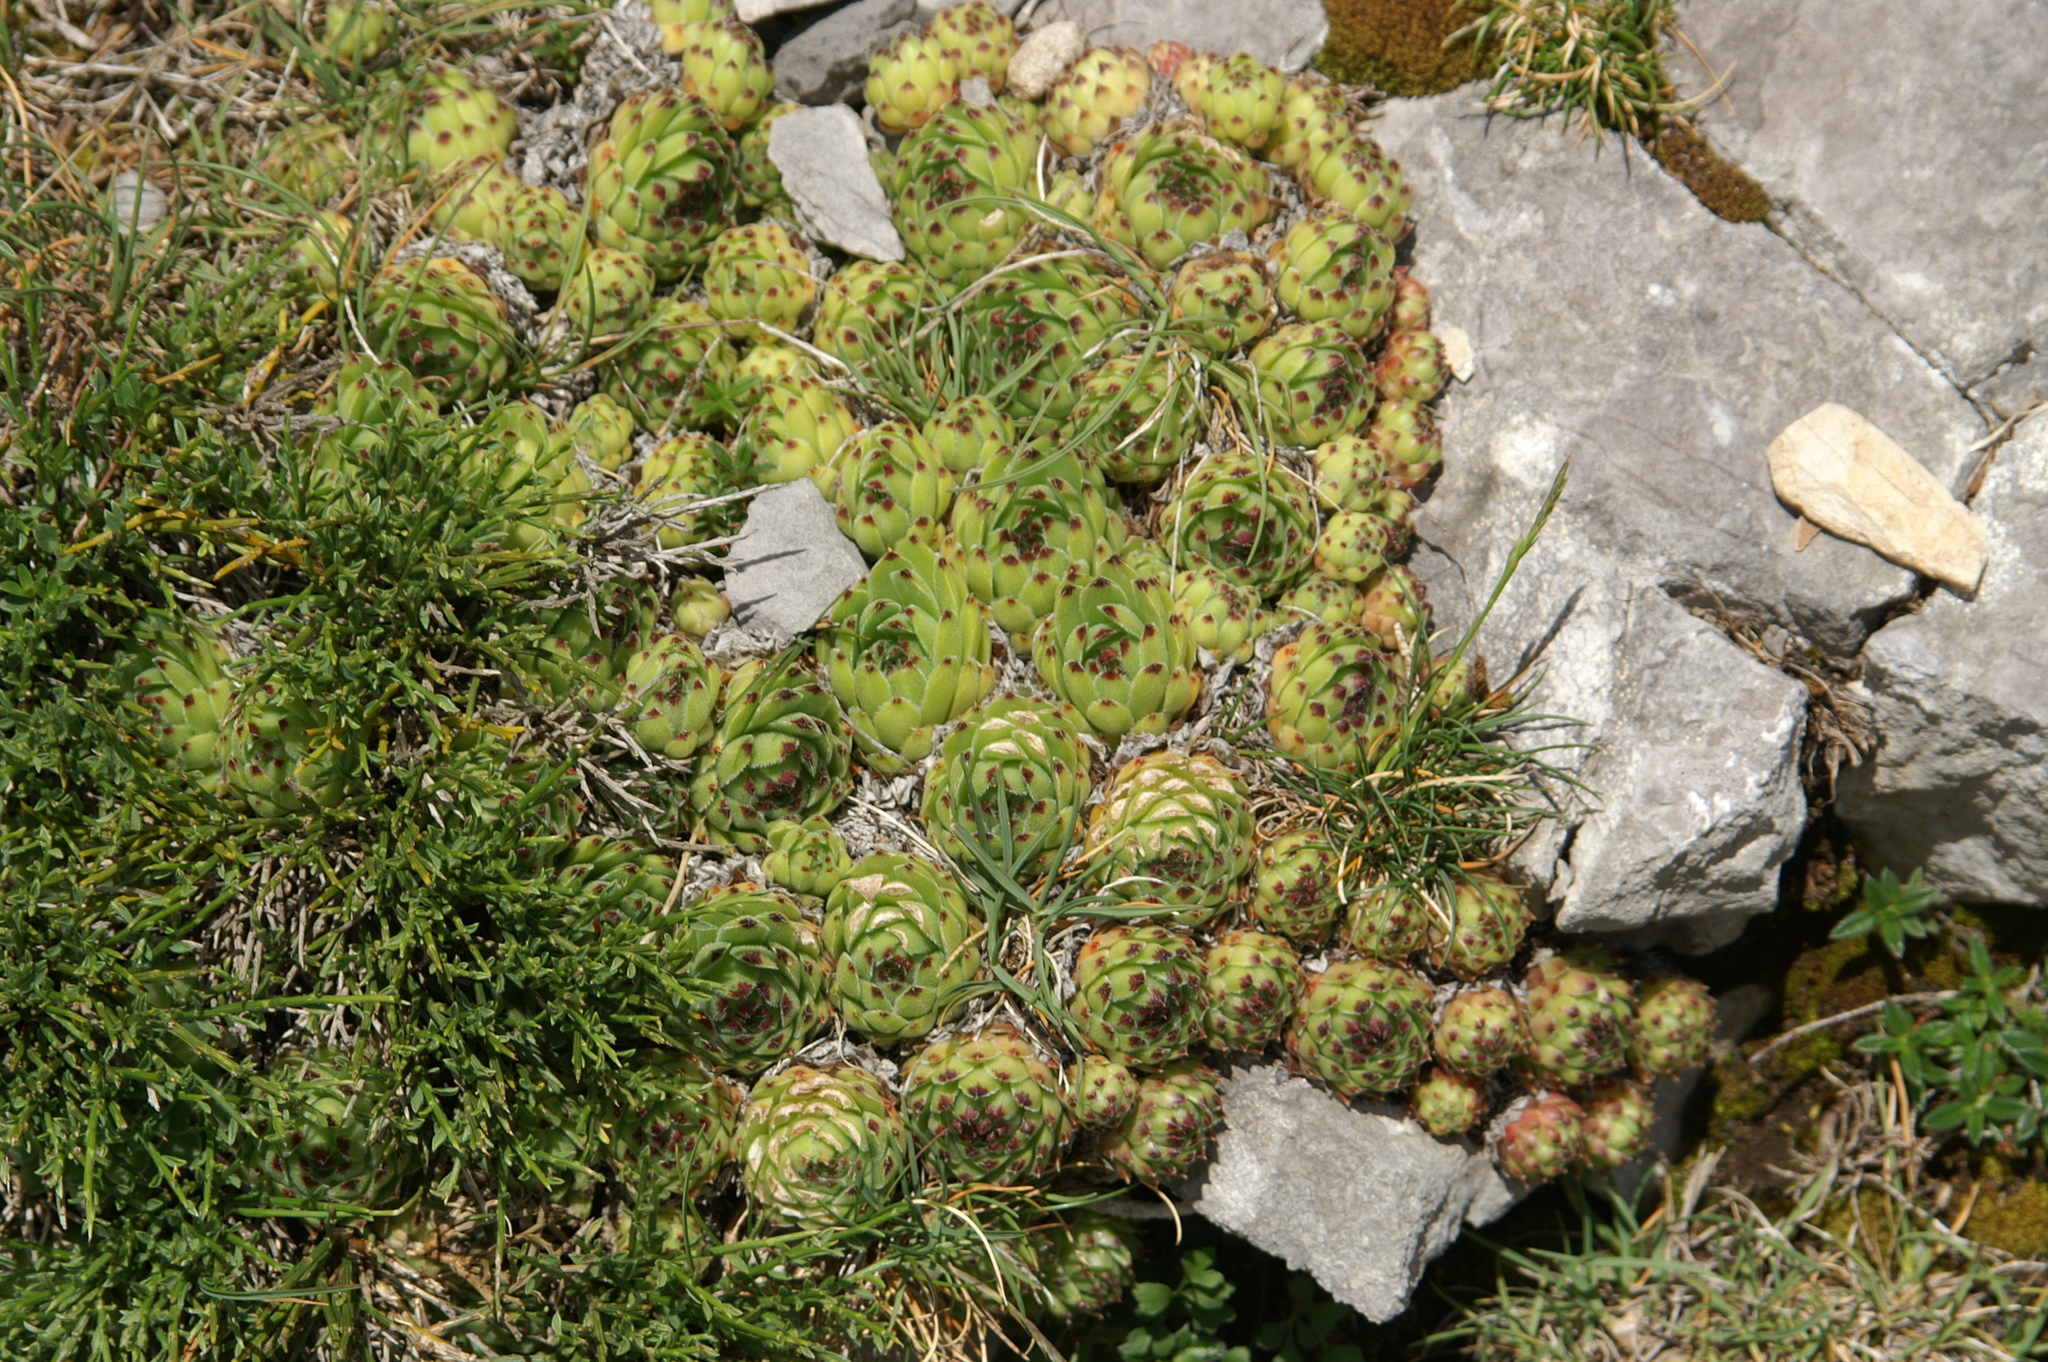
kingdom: Plantae
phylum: Tracheophyta
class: Magnoliopsida
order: Saxifragales
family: Crassulaceae
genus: Sempervivum
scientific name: Sempervivum vicentei
